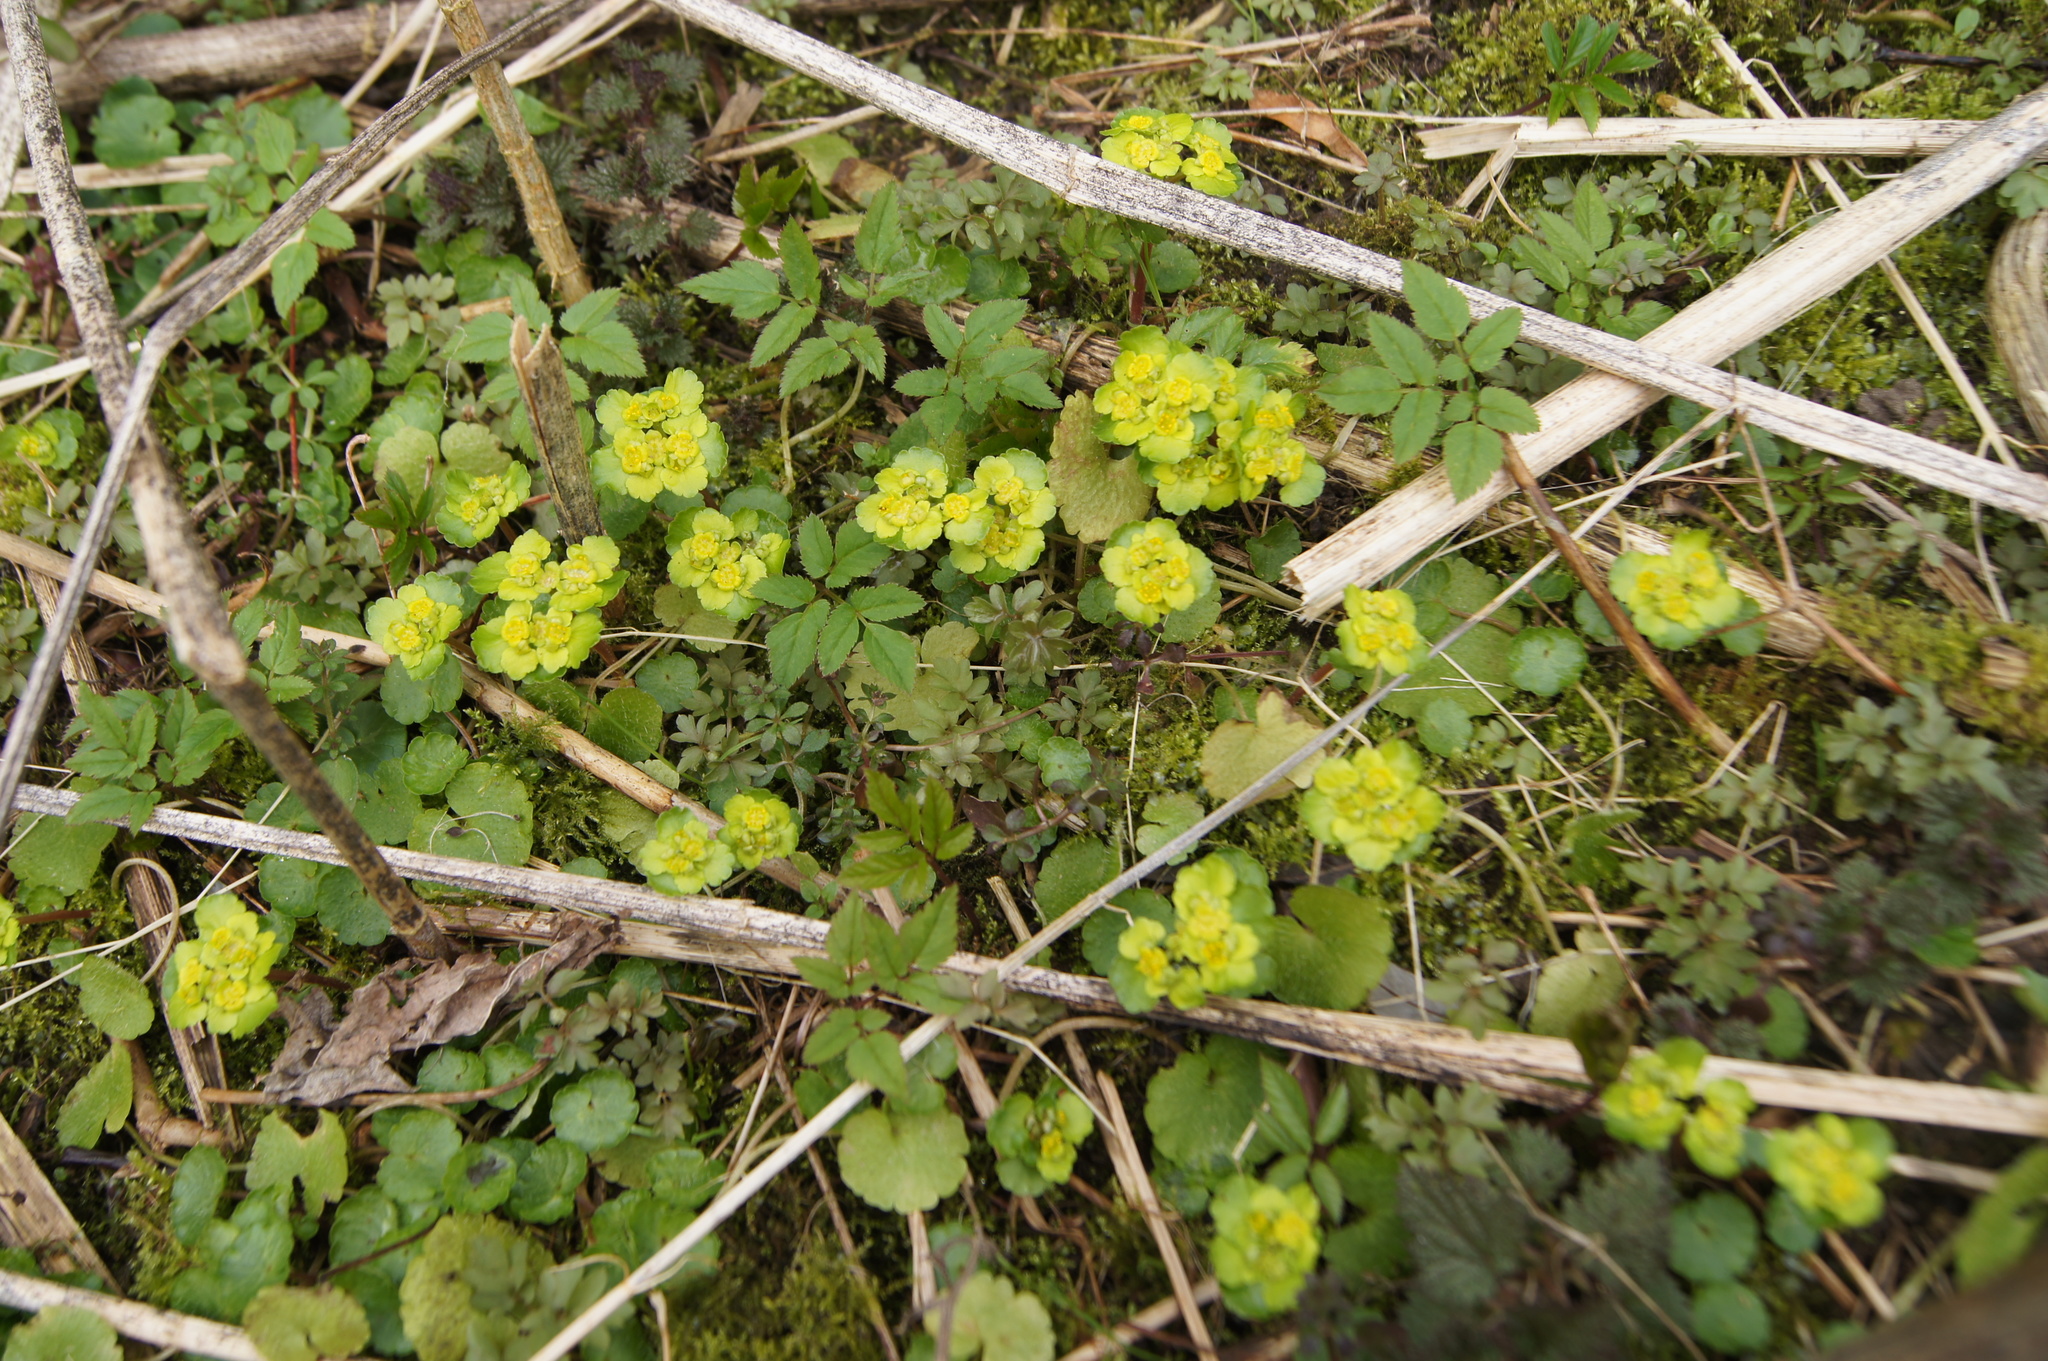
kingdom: Plantae
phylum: Tracheophyta
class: Magnoliopsida
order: Saxifragales
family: Saxifragaceae
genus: Chrysosplenium
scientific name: Chrysosplenium alternifolium
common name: Alternate-leaved golden-saxifrage
